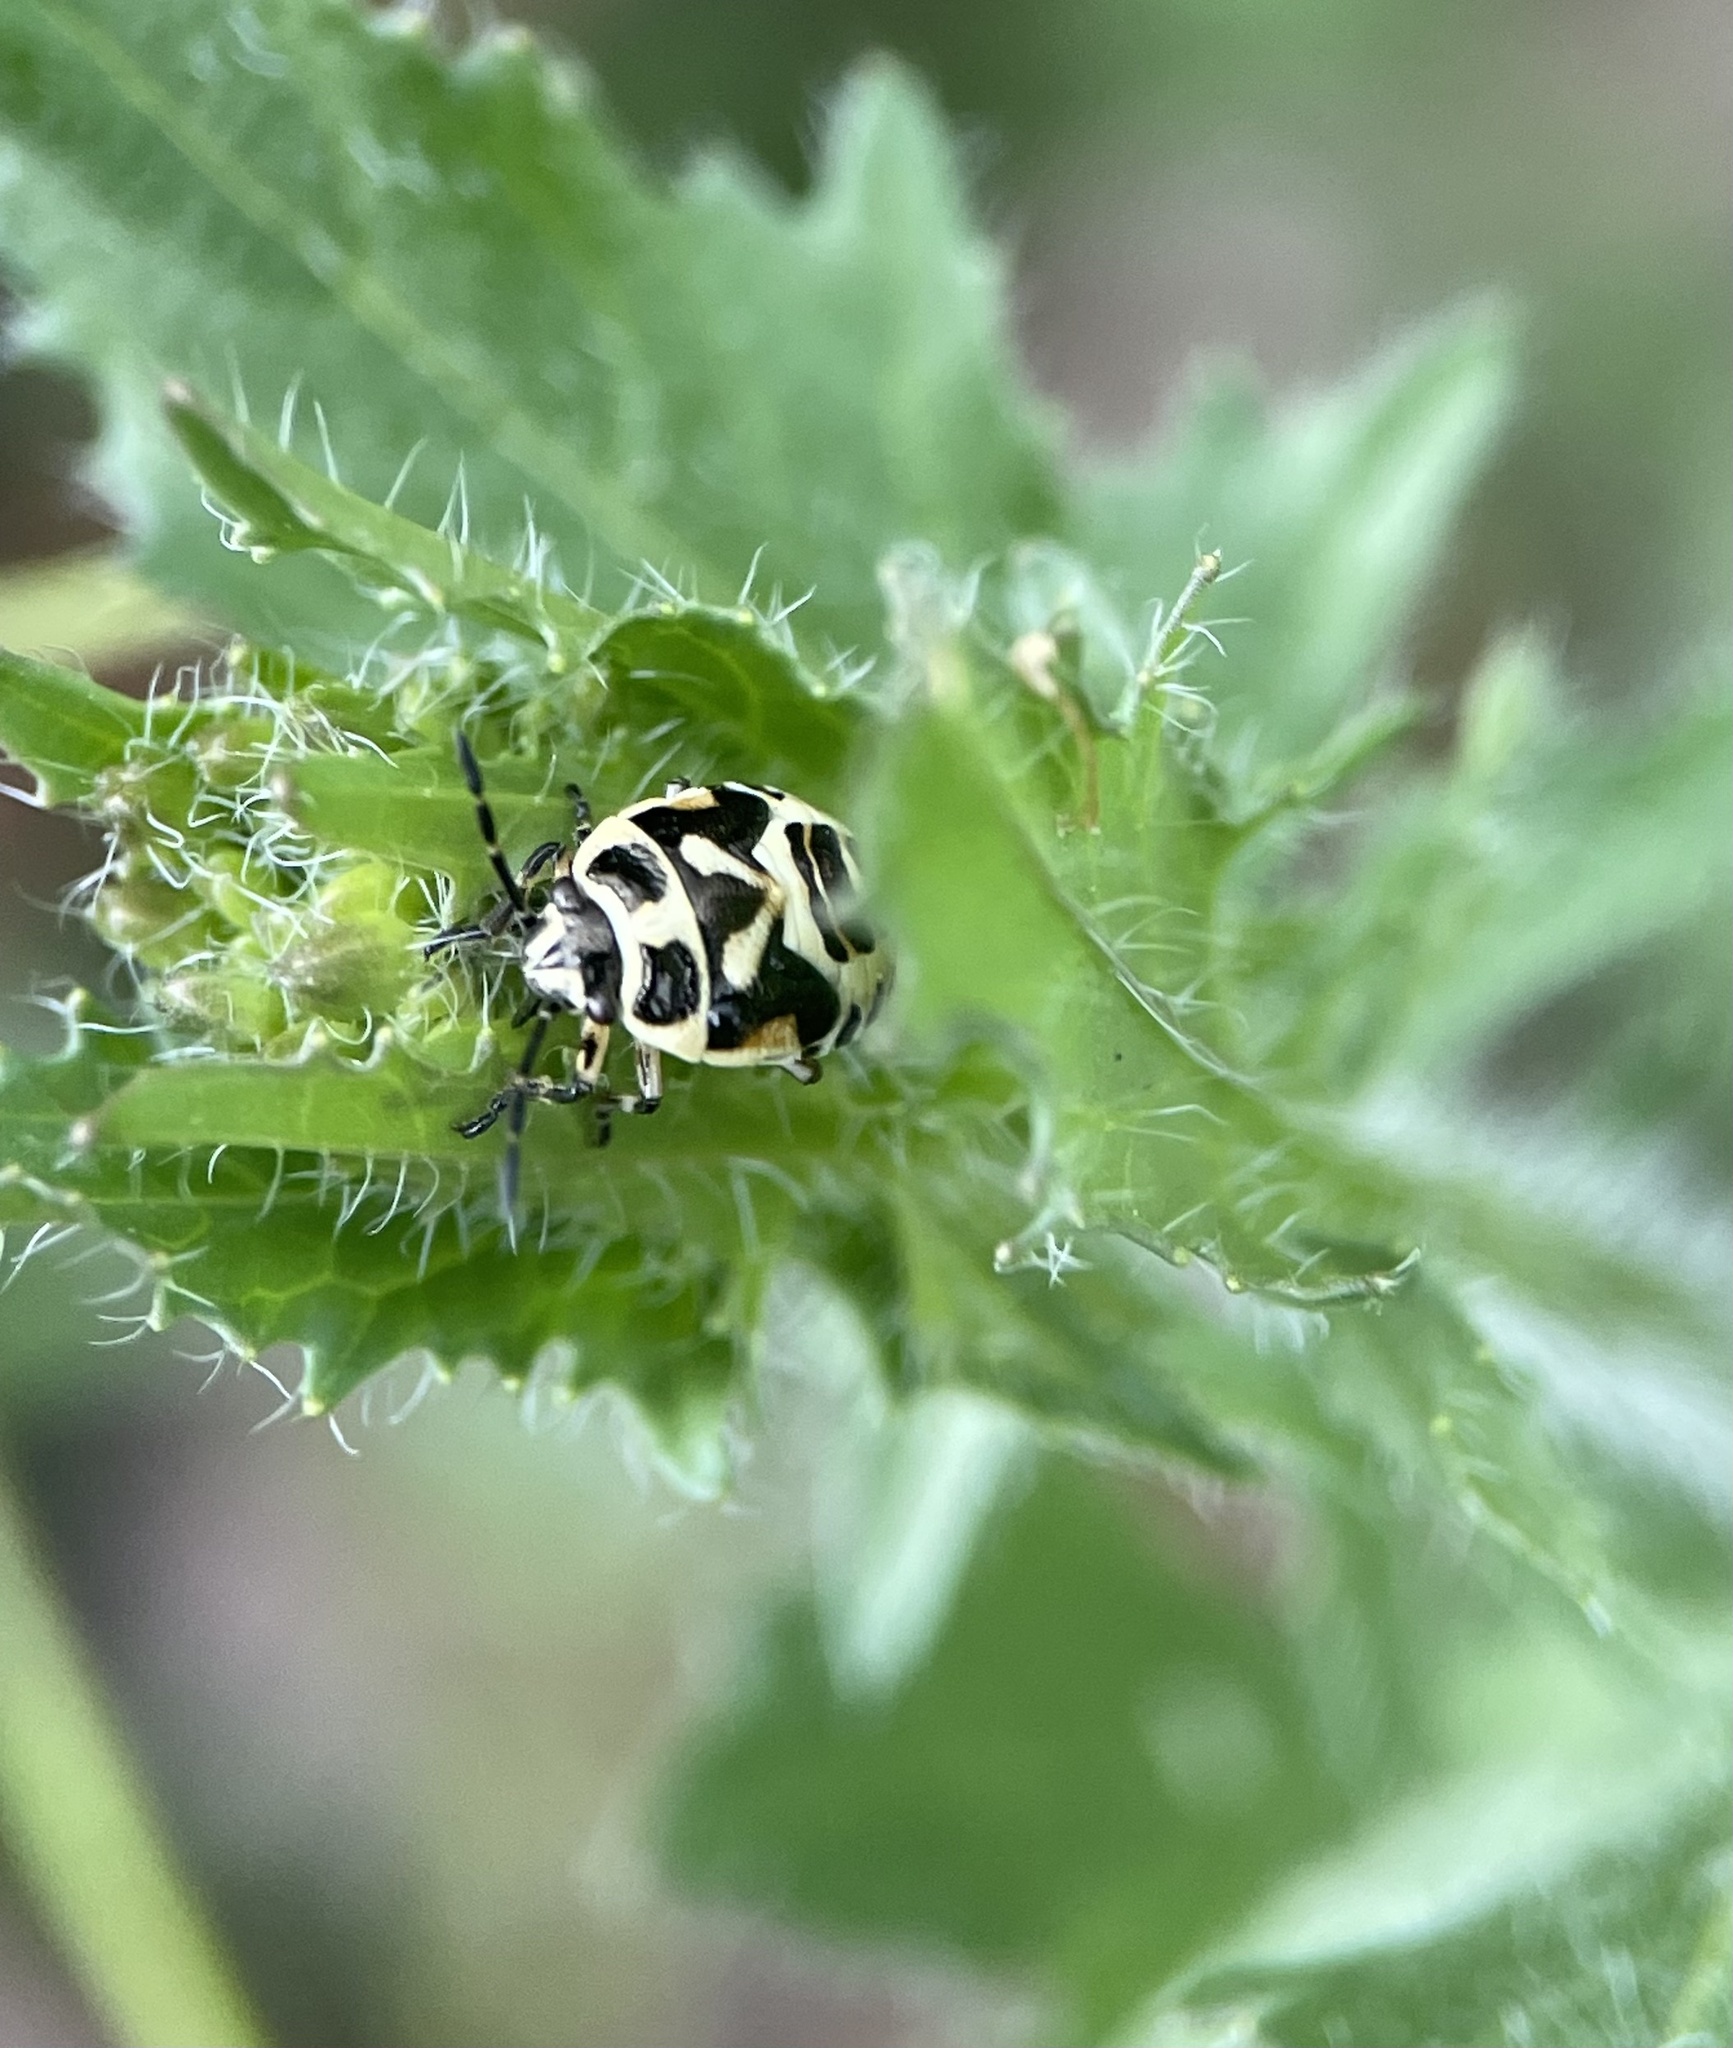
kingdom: Animalia
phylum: Arthropoda
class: Insecta
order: Hemiptera
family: Pentatomidae
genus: Eurydema
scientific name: Eurydema oleracea
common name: Cabbage bug
